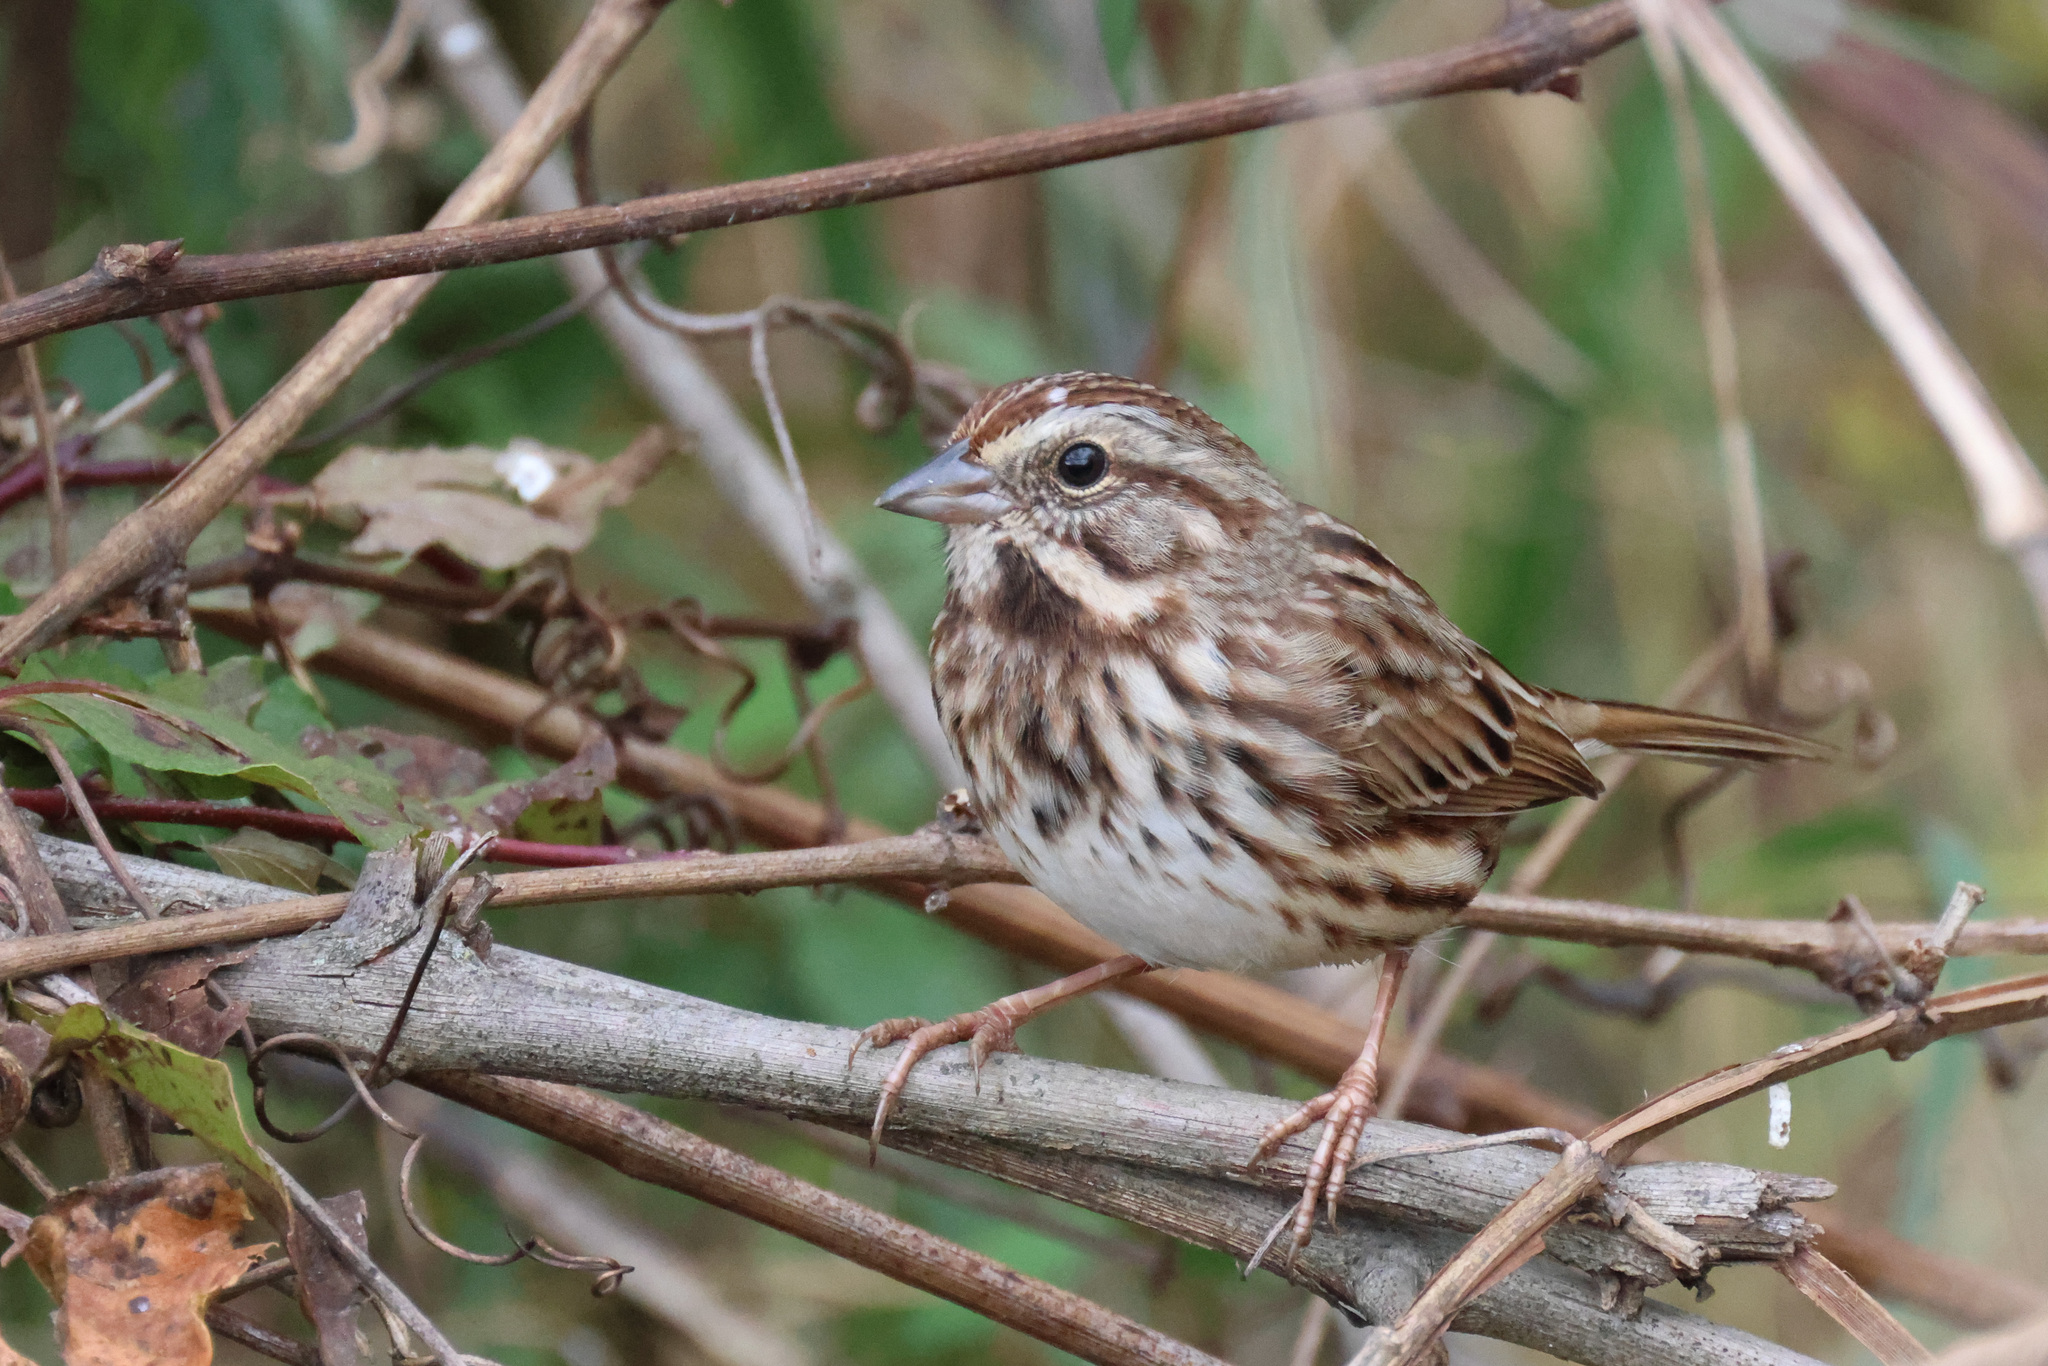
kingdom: Animalia
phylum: Chordata
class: Aves
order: Passeriformes
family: Passerellidae
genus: Melospiza
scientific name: Melospiza melodia
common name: Song sparrow
